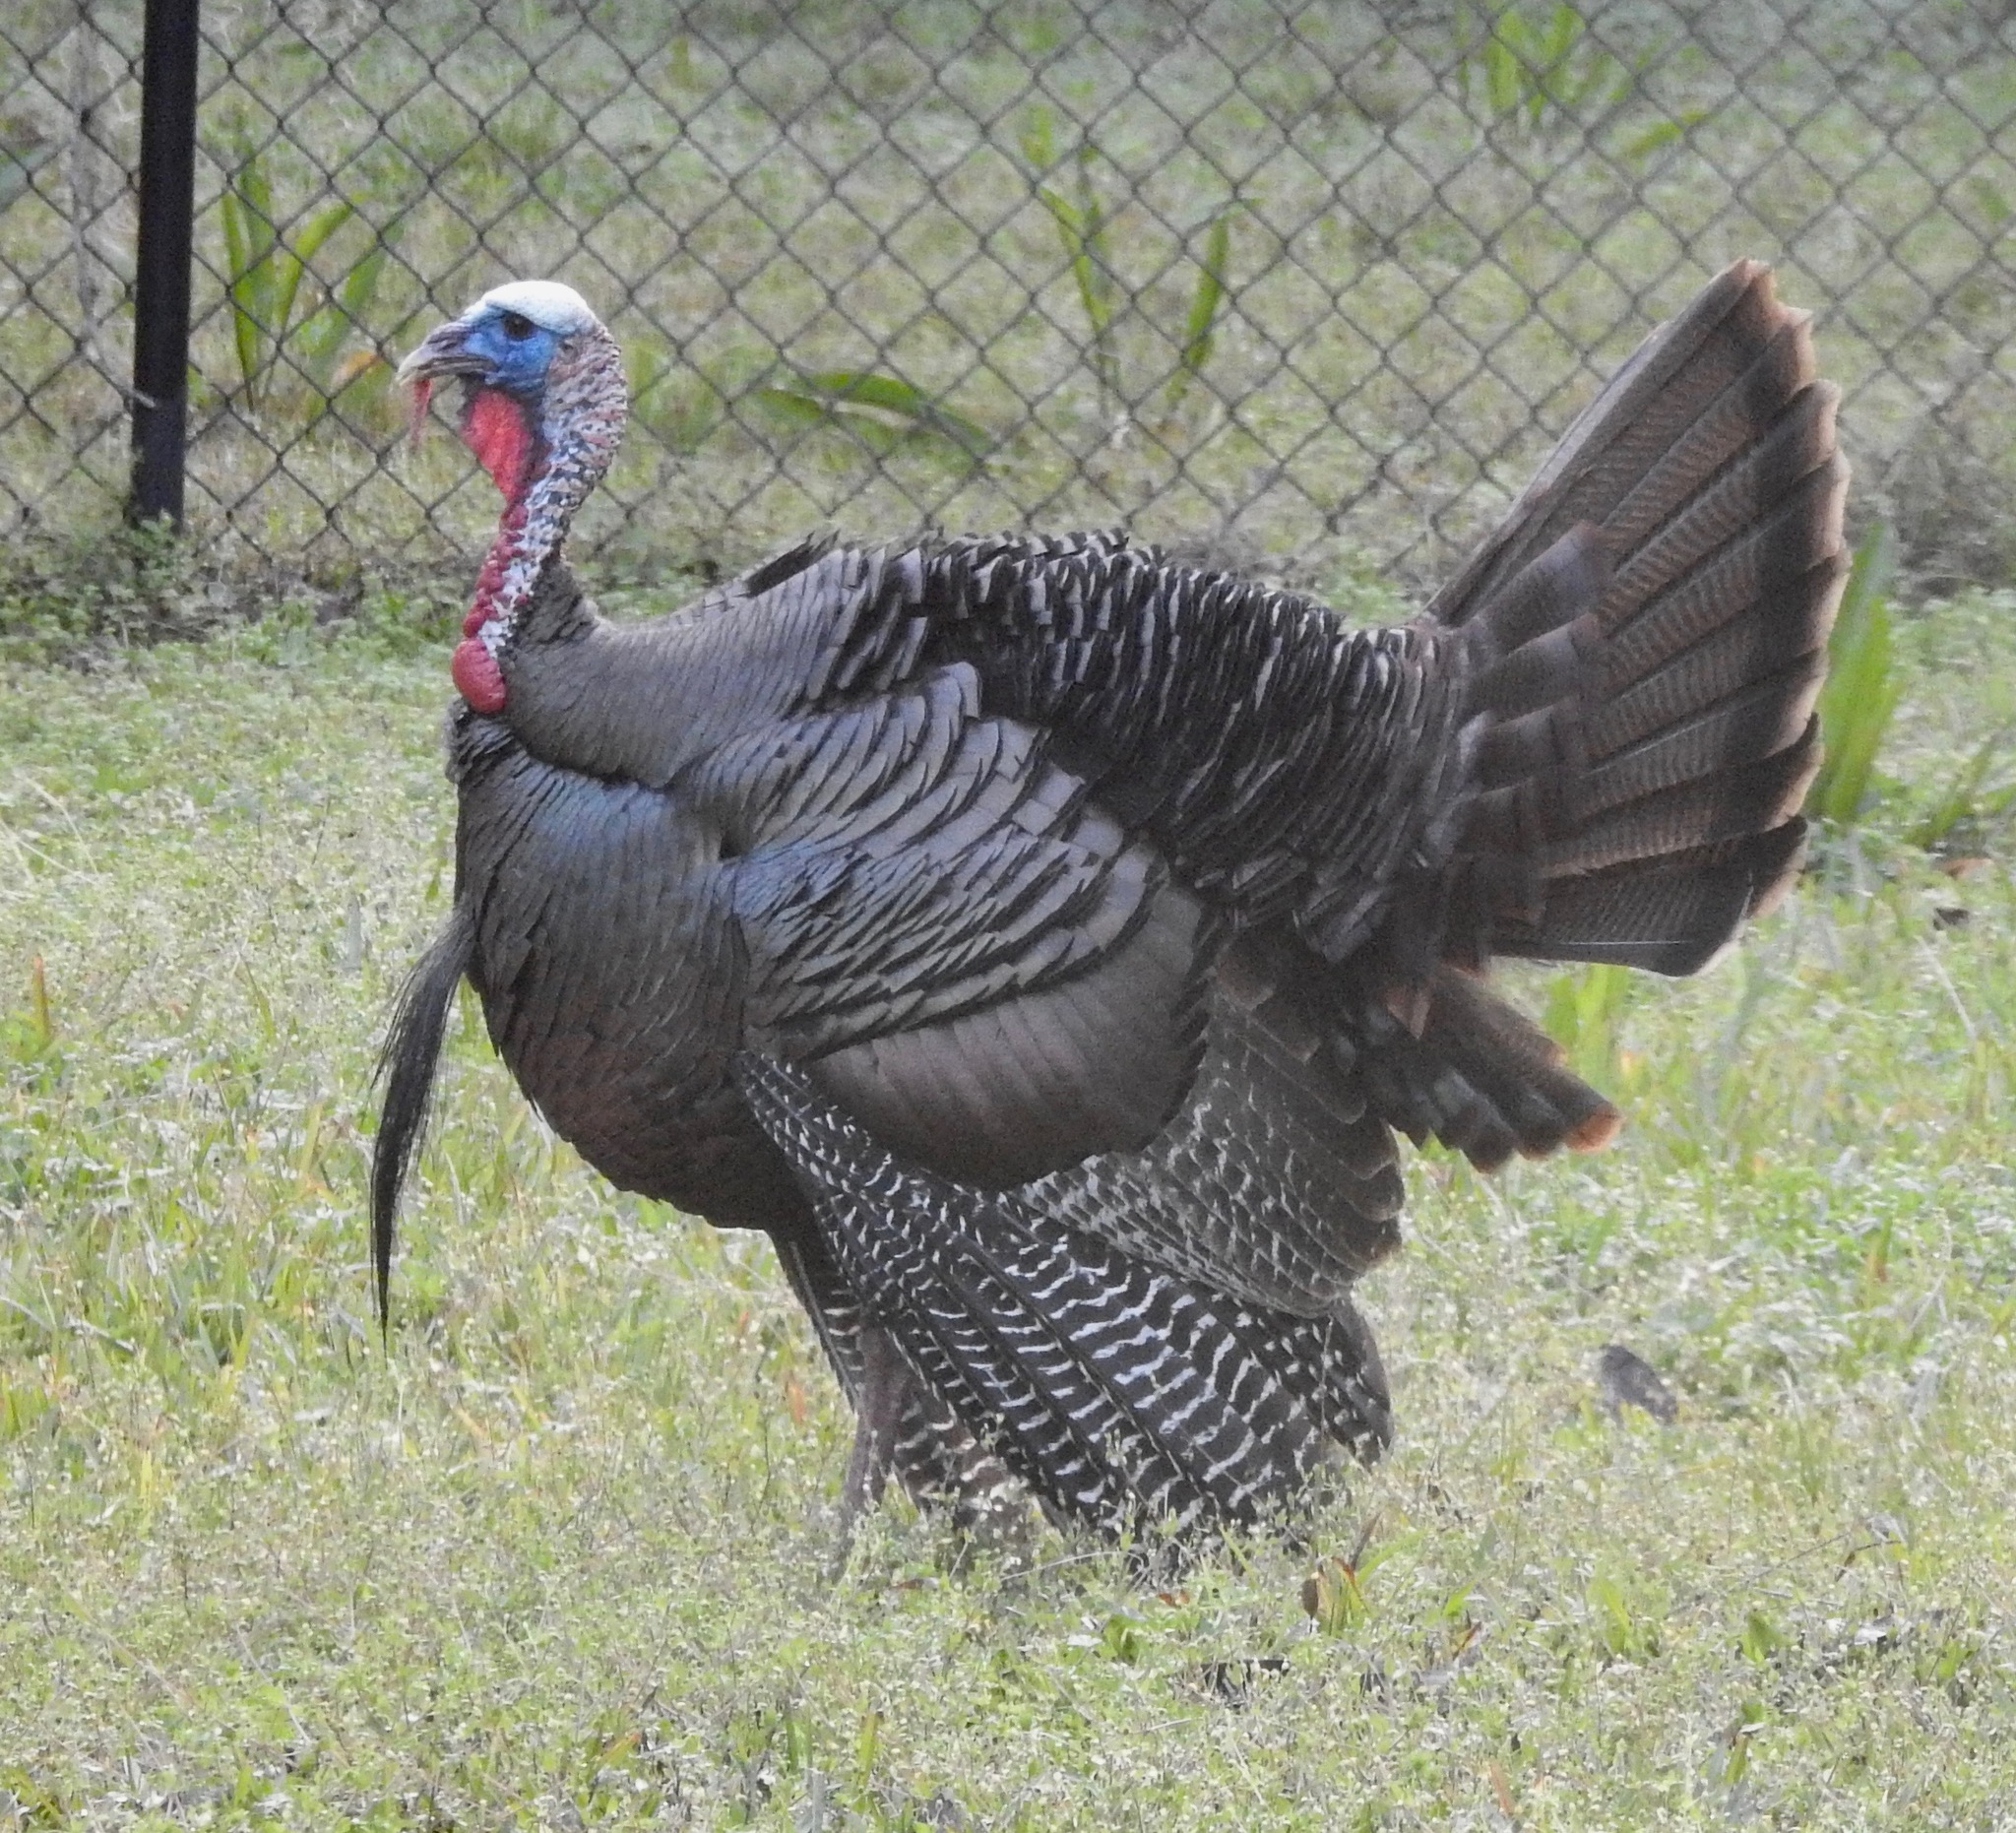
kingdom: Animalia
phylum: Chordata
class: Aves
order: Galliformes
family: Phasianidae
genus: Meleagris
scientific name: Meleagris gallopavo
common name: Wild turkey
